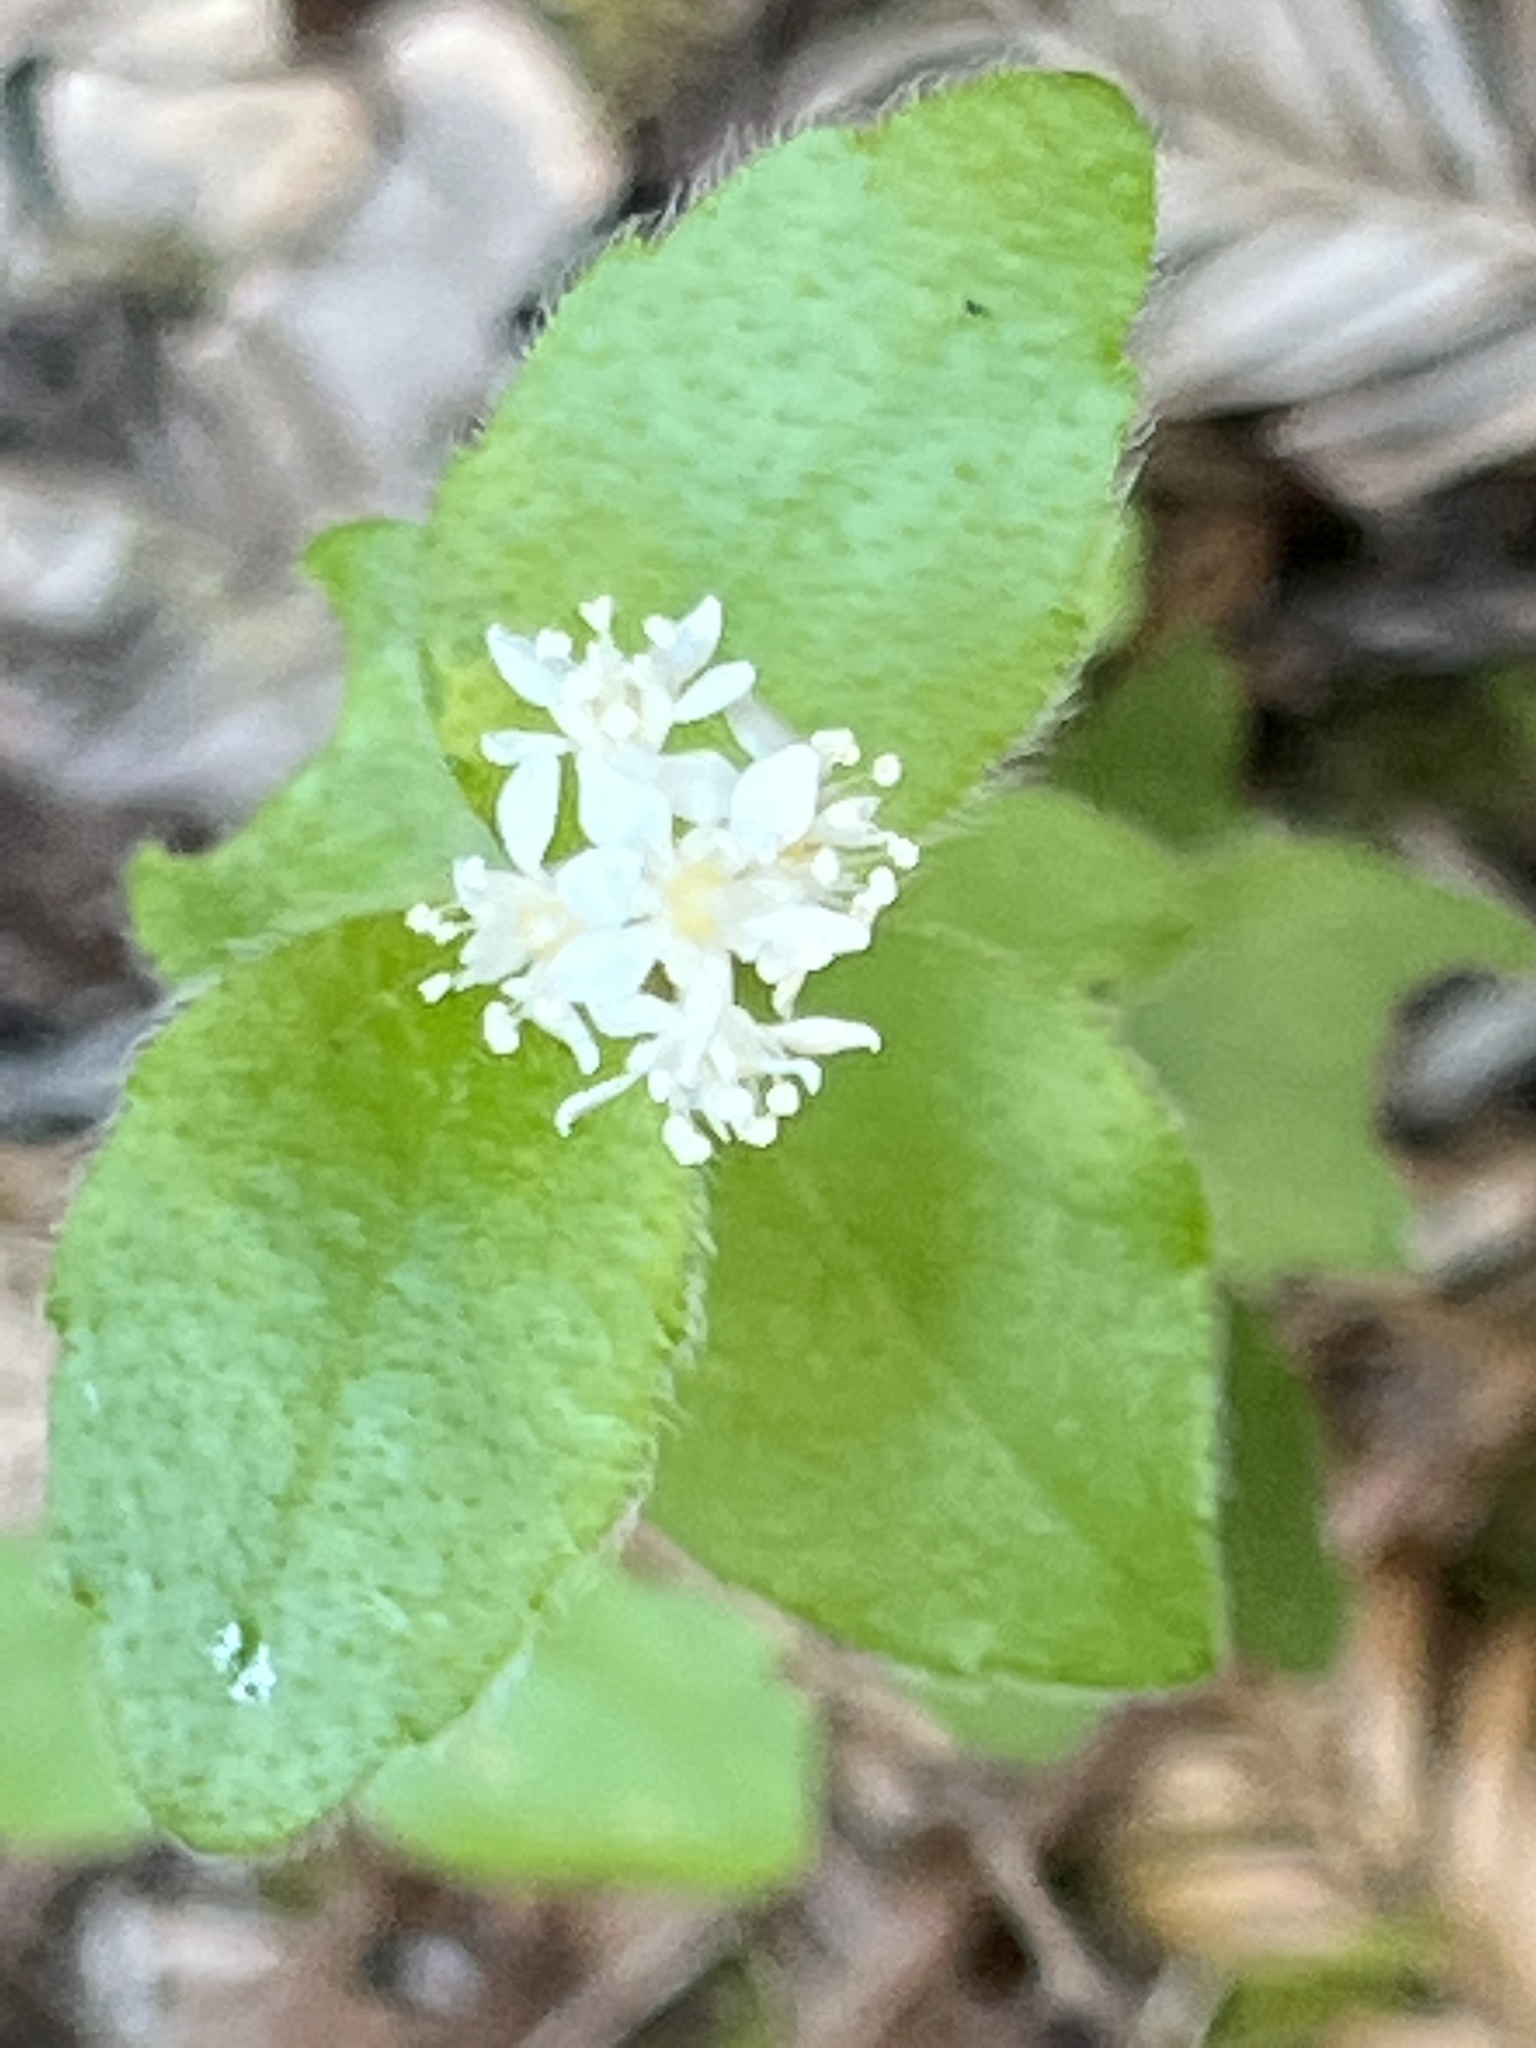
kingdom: Plantae
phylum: Tracheophyta
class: Magnoliopsida
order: Cornales
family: Hydrangeaceae
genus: Whipplea
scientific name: Whipplea modesta
